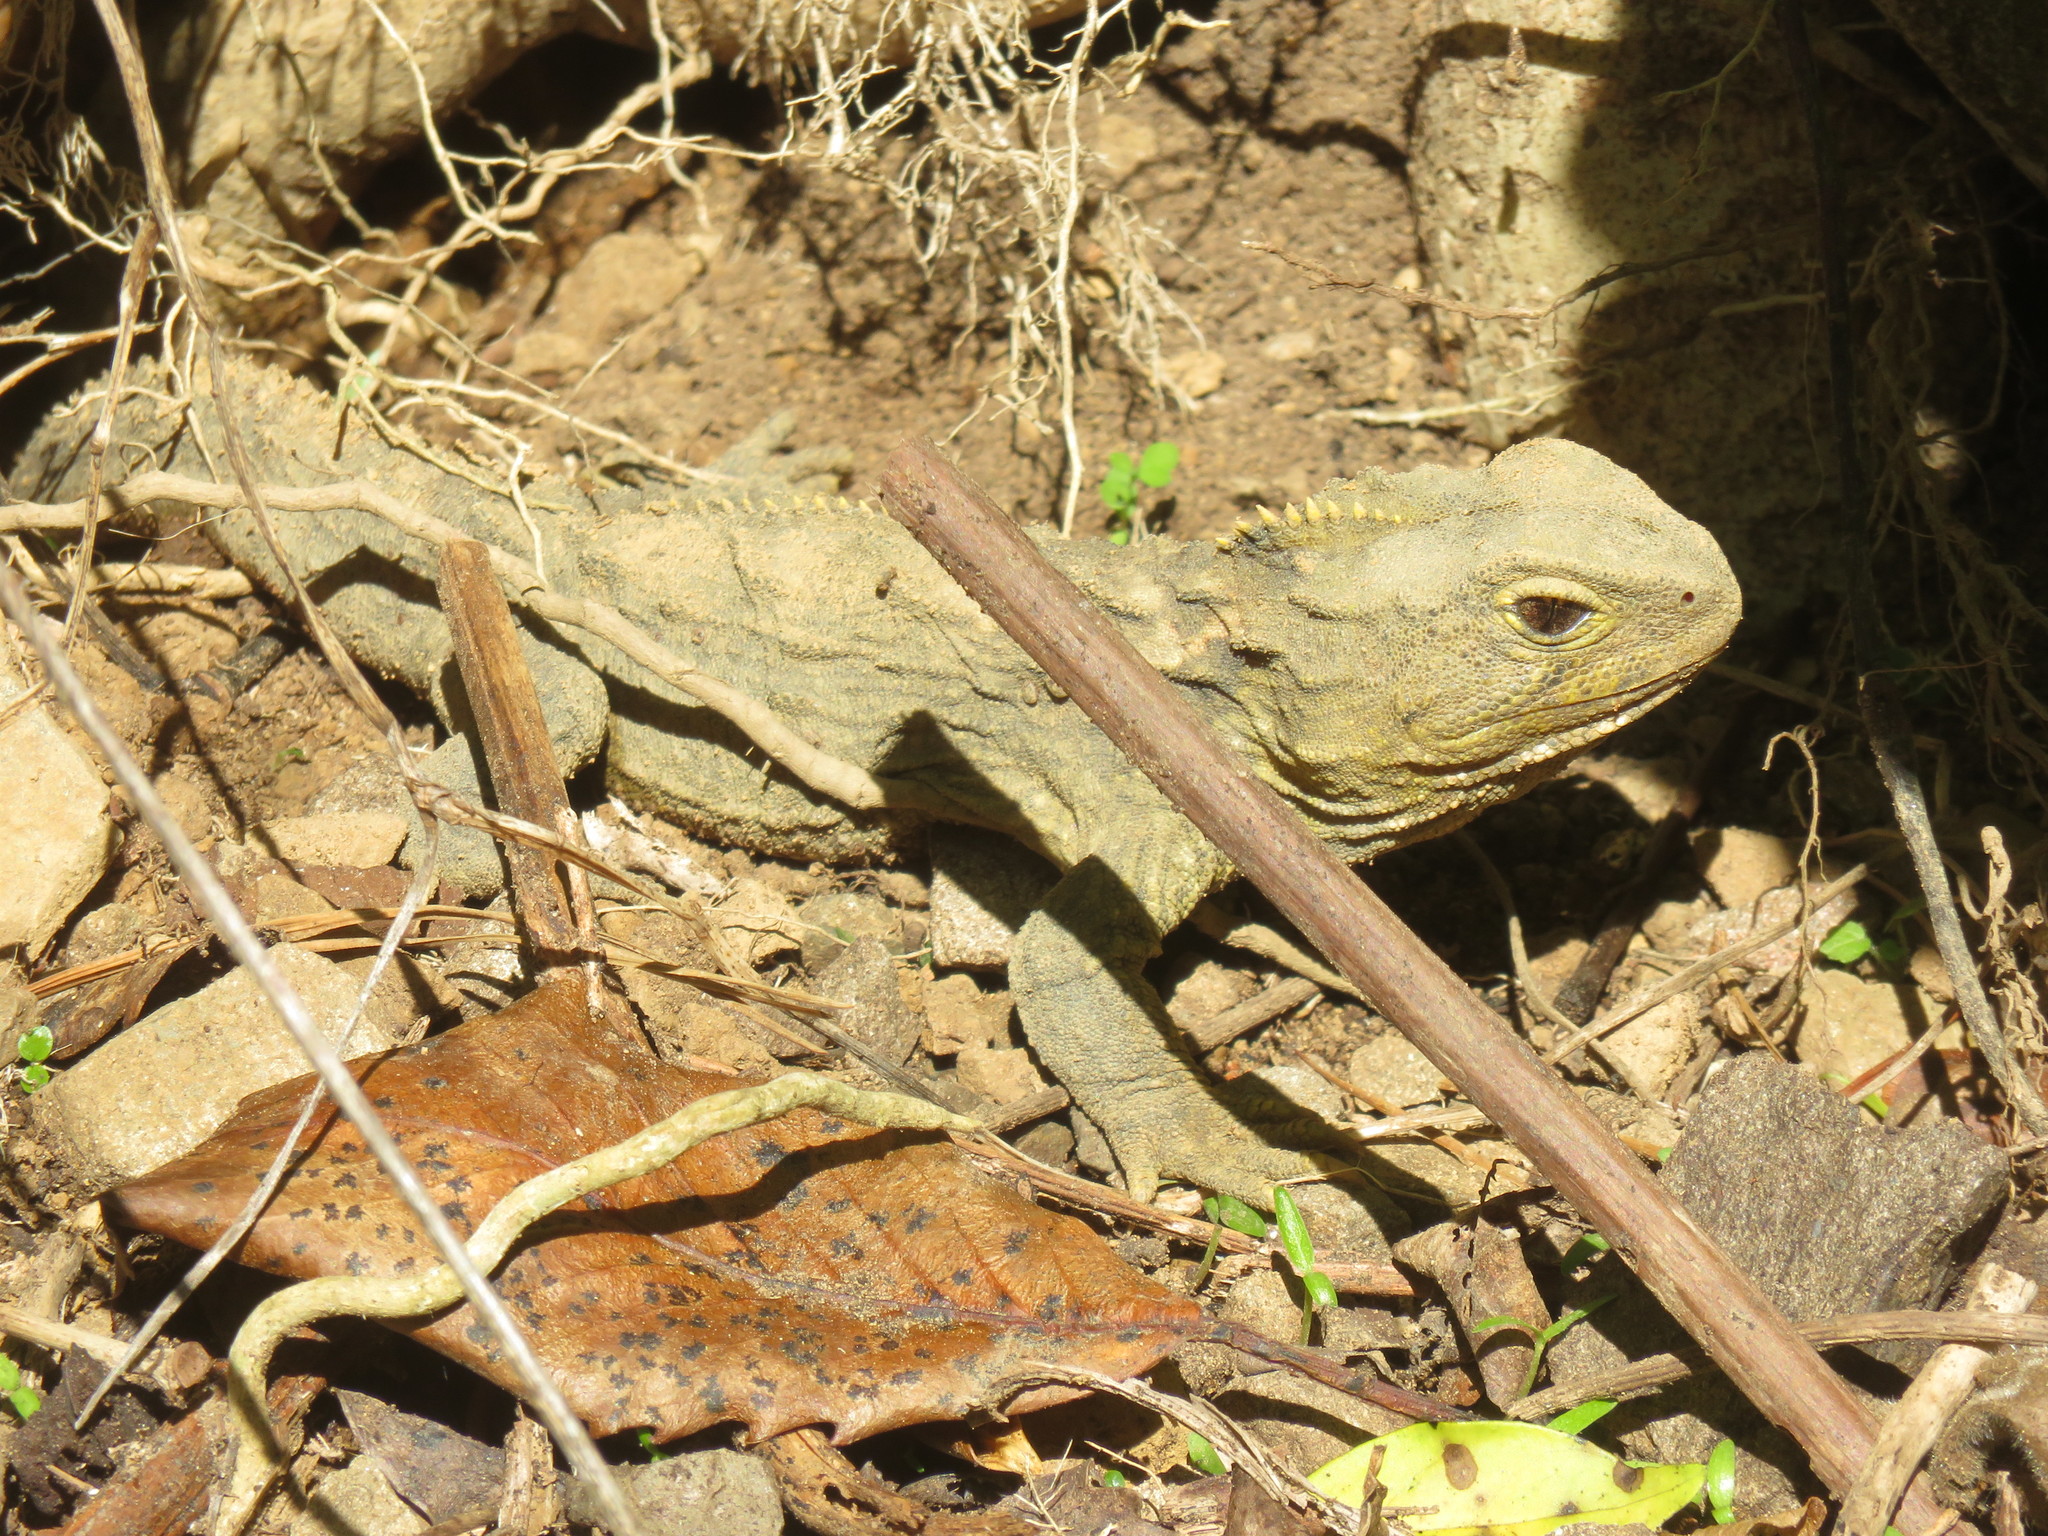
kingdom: Animalia
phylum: Chordata
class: Sphenodontia
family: Sphenodontidae
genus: Sphenodon
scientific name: Sphenodon punctatus
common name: Tuatara
